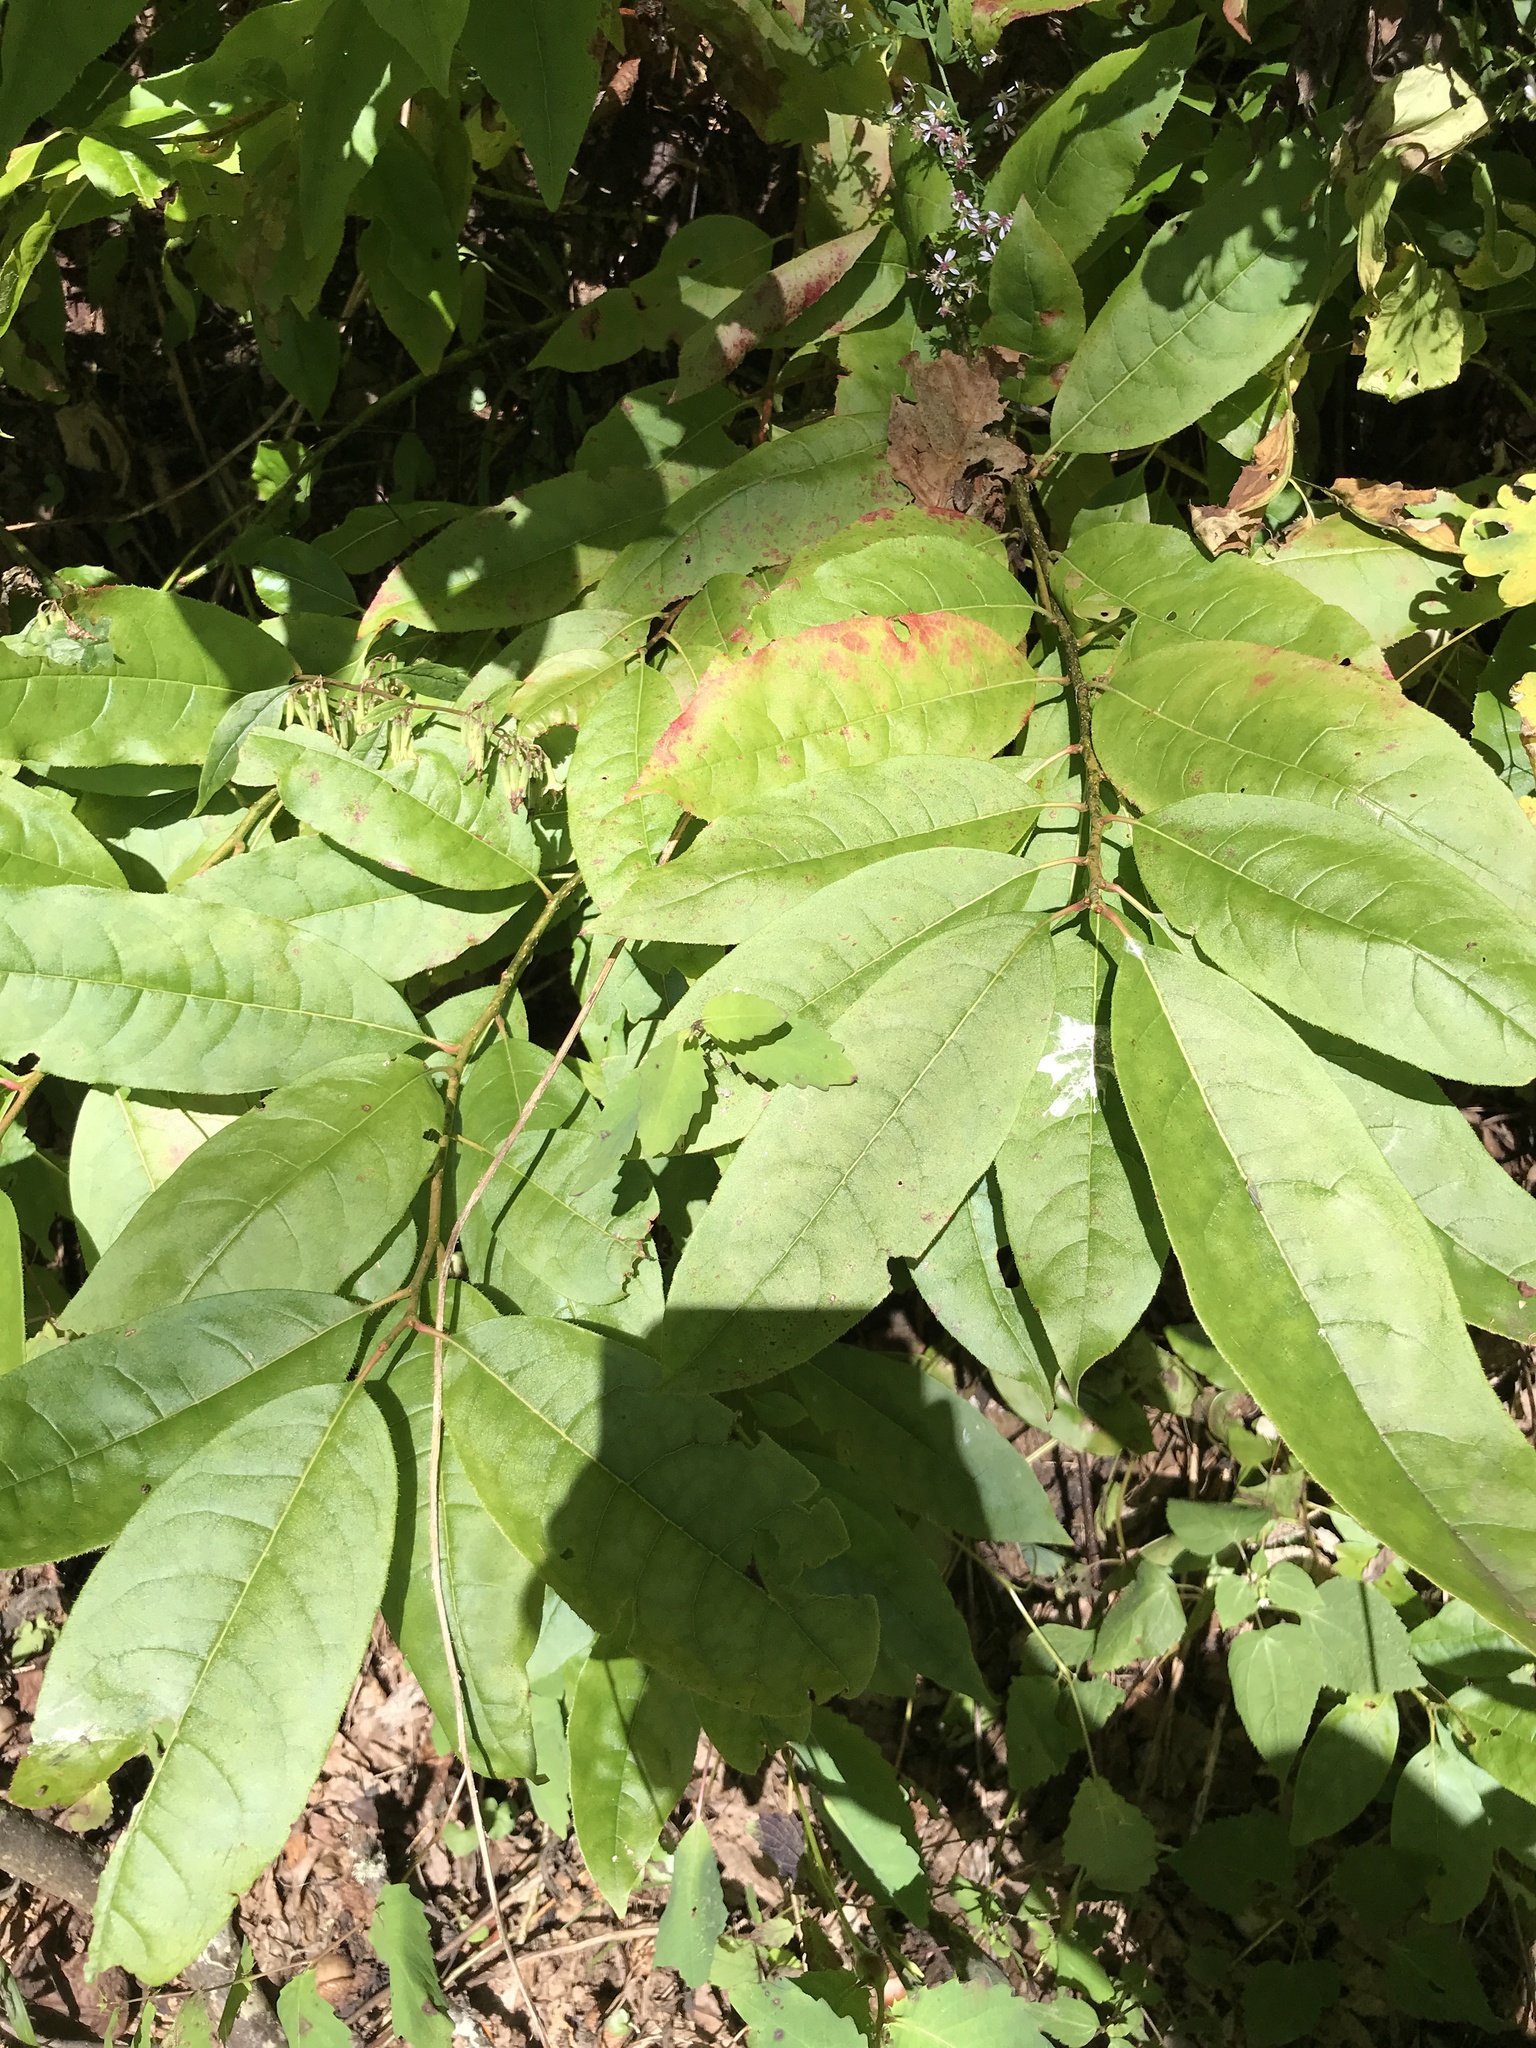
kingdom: Plantae
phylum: Tracheophyta
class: Magnoliopsida
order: Ericales
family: Ericaceae
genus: Oxydendrum
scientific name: Oxydendrum arboreum
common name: Sourwood
